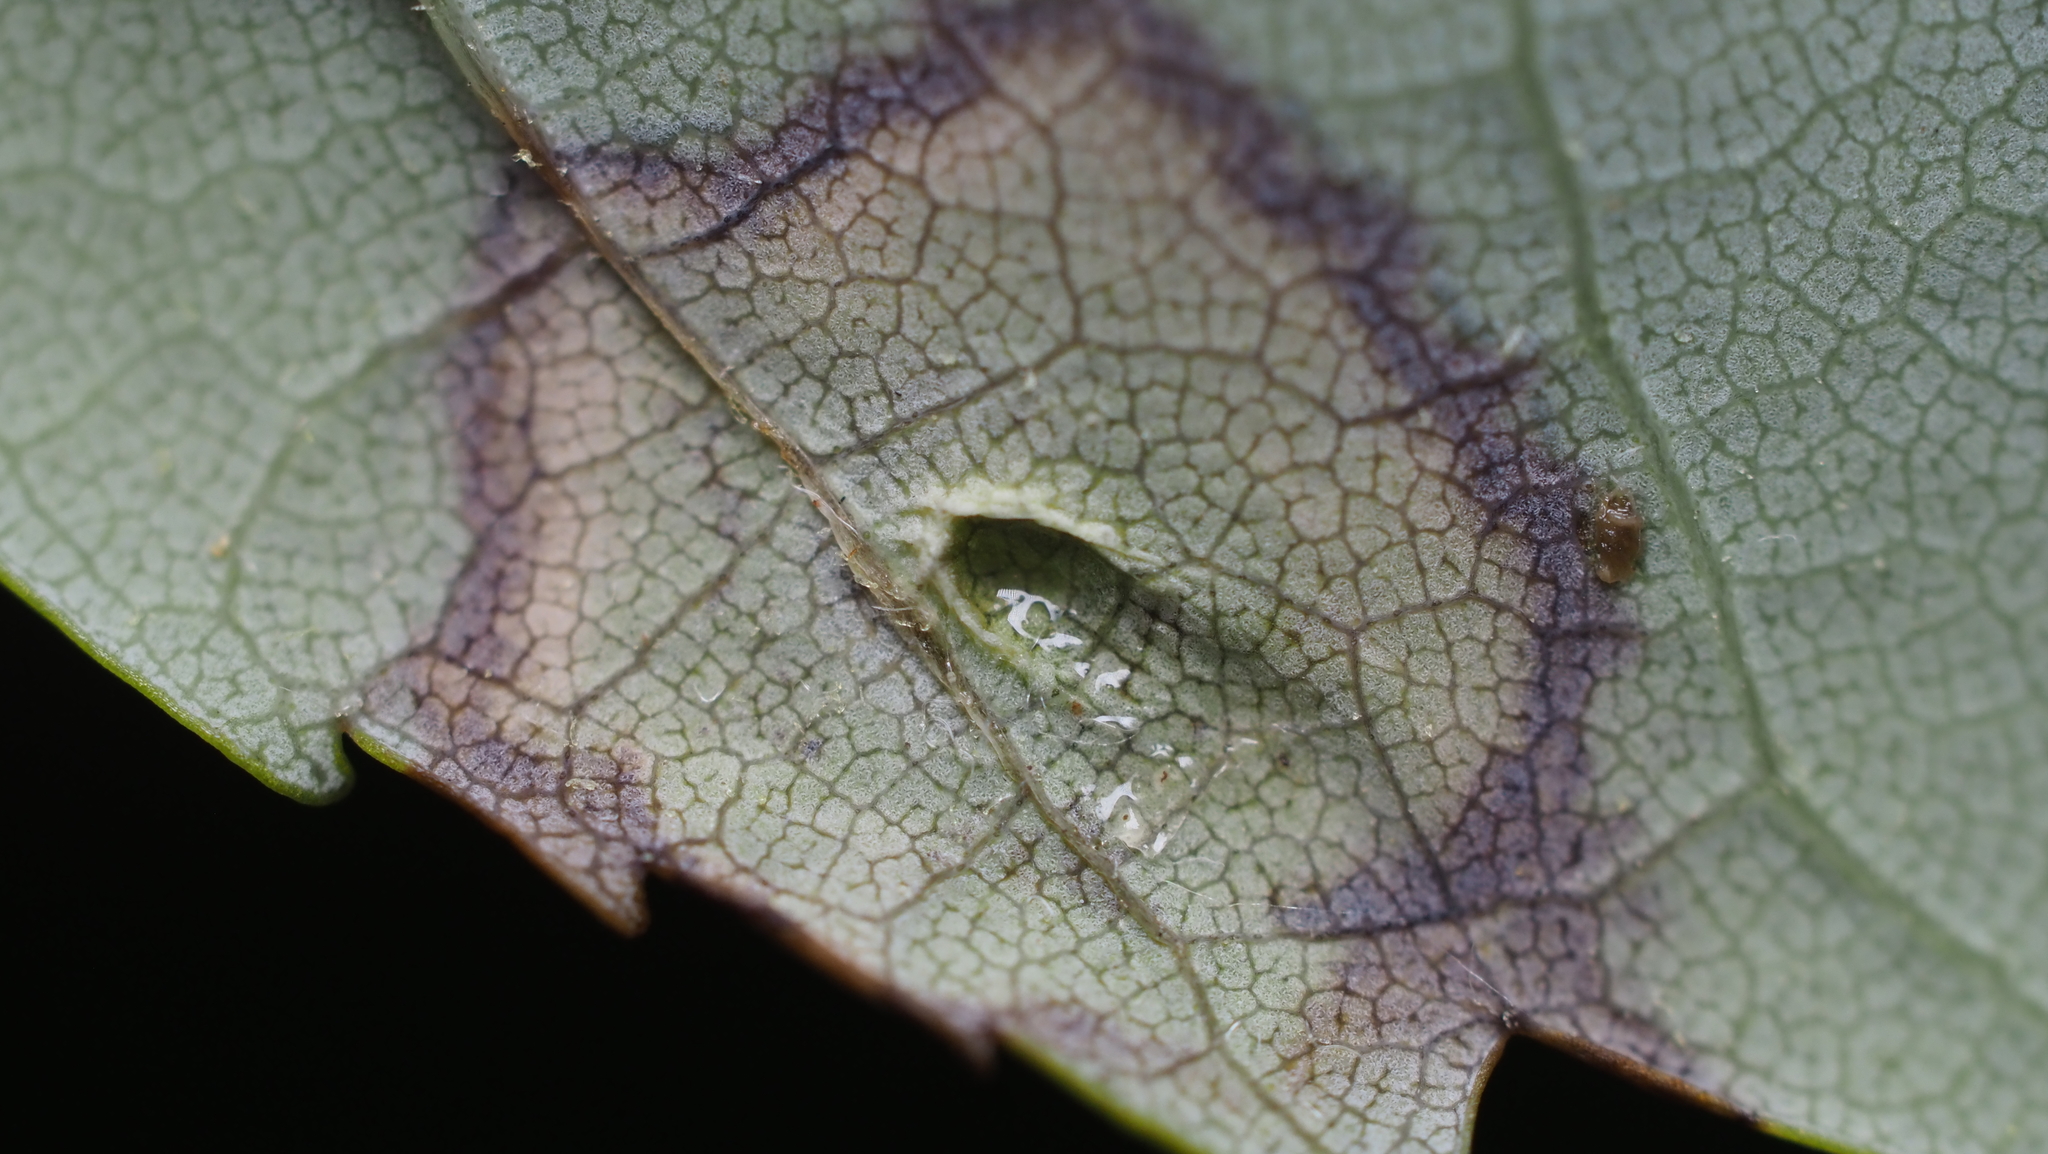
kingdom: Animalia
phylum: Arthropoda
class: Insecta
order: Diptera
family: Cecidomyiidae
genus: Acericecis
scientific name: Acericecis ocellaris
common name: Ocellate gall midge
